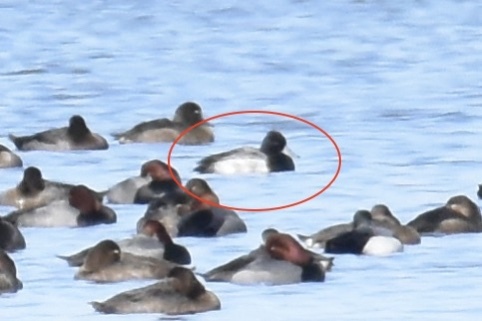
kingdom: Animalia
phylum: Chordata
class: Aves
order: Anseriformes
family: Anatidae
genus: Aythya
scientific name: Aythya affinis
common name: Lesser scaup
